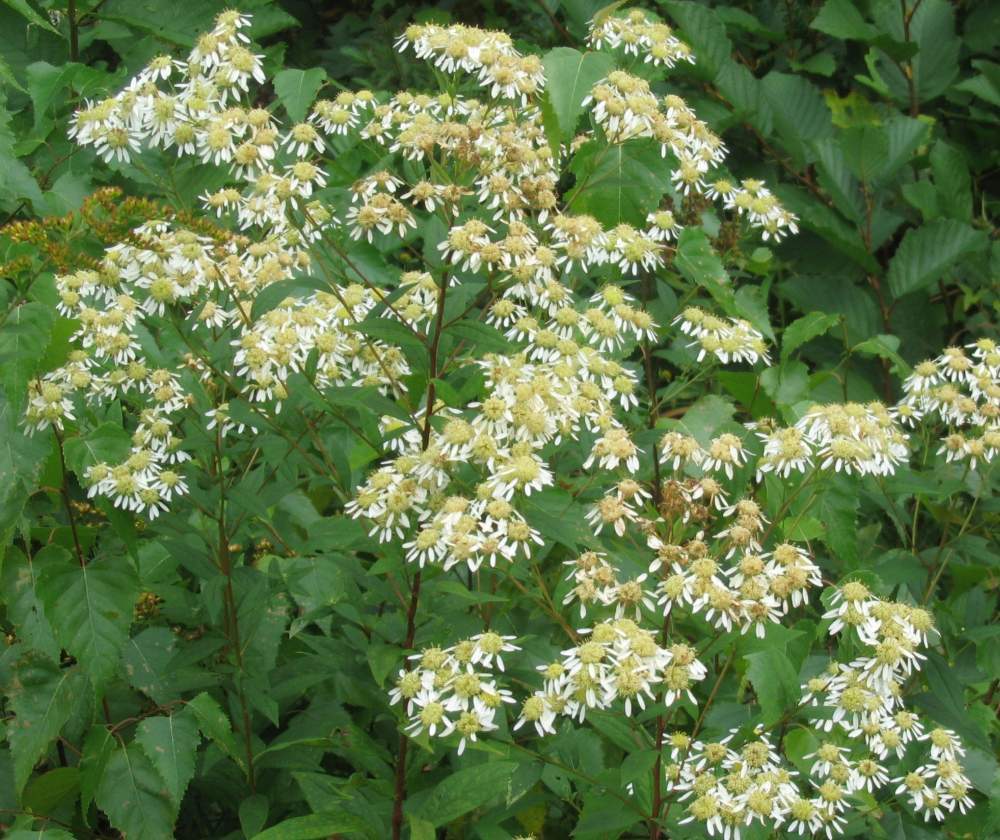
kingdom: Plantae
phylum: Tracheophyta
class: Magnoliopsida
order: Asterales
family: Asteraceae
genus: Doellingeria
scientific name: Doellingeria umbellata
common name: Flat-top white aster
